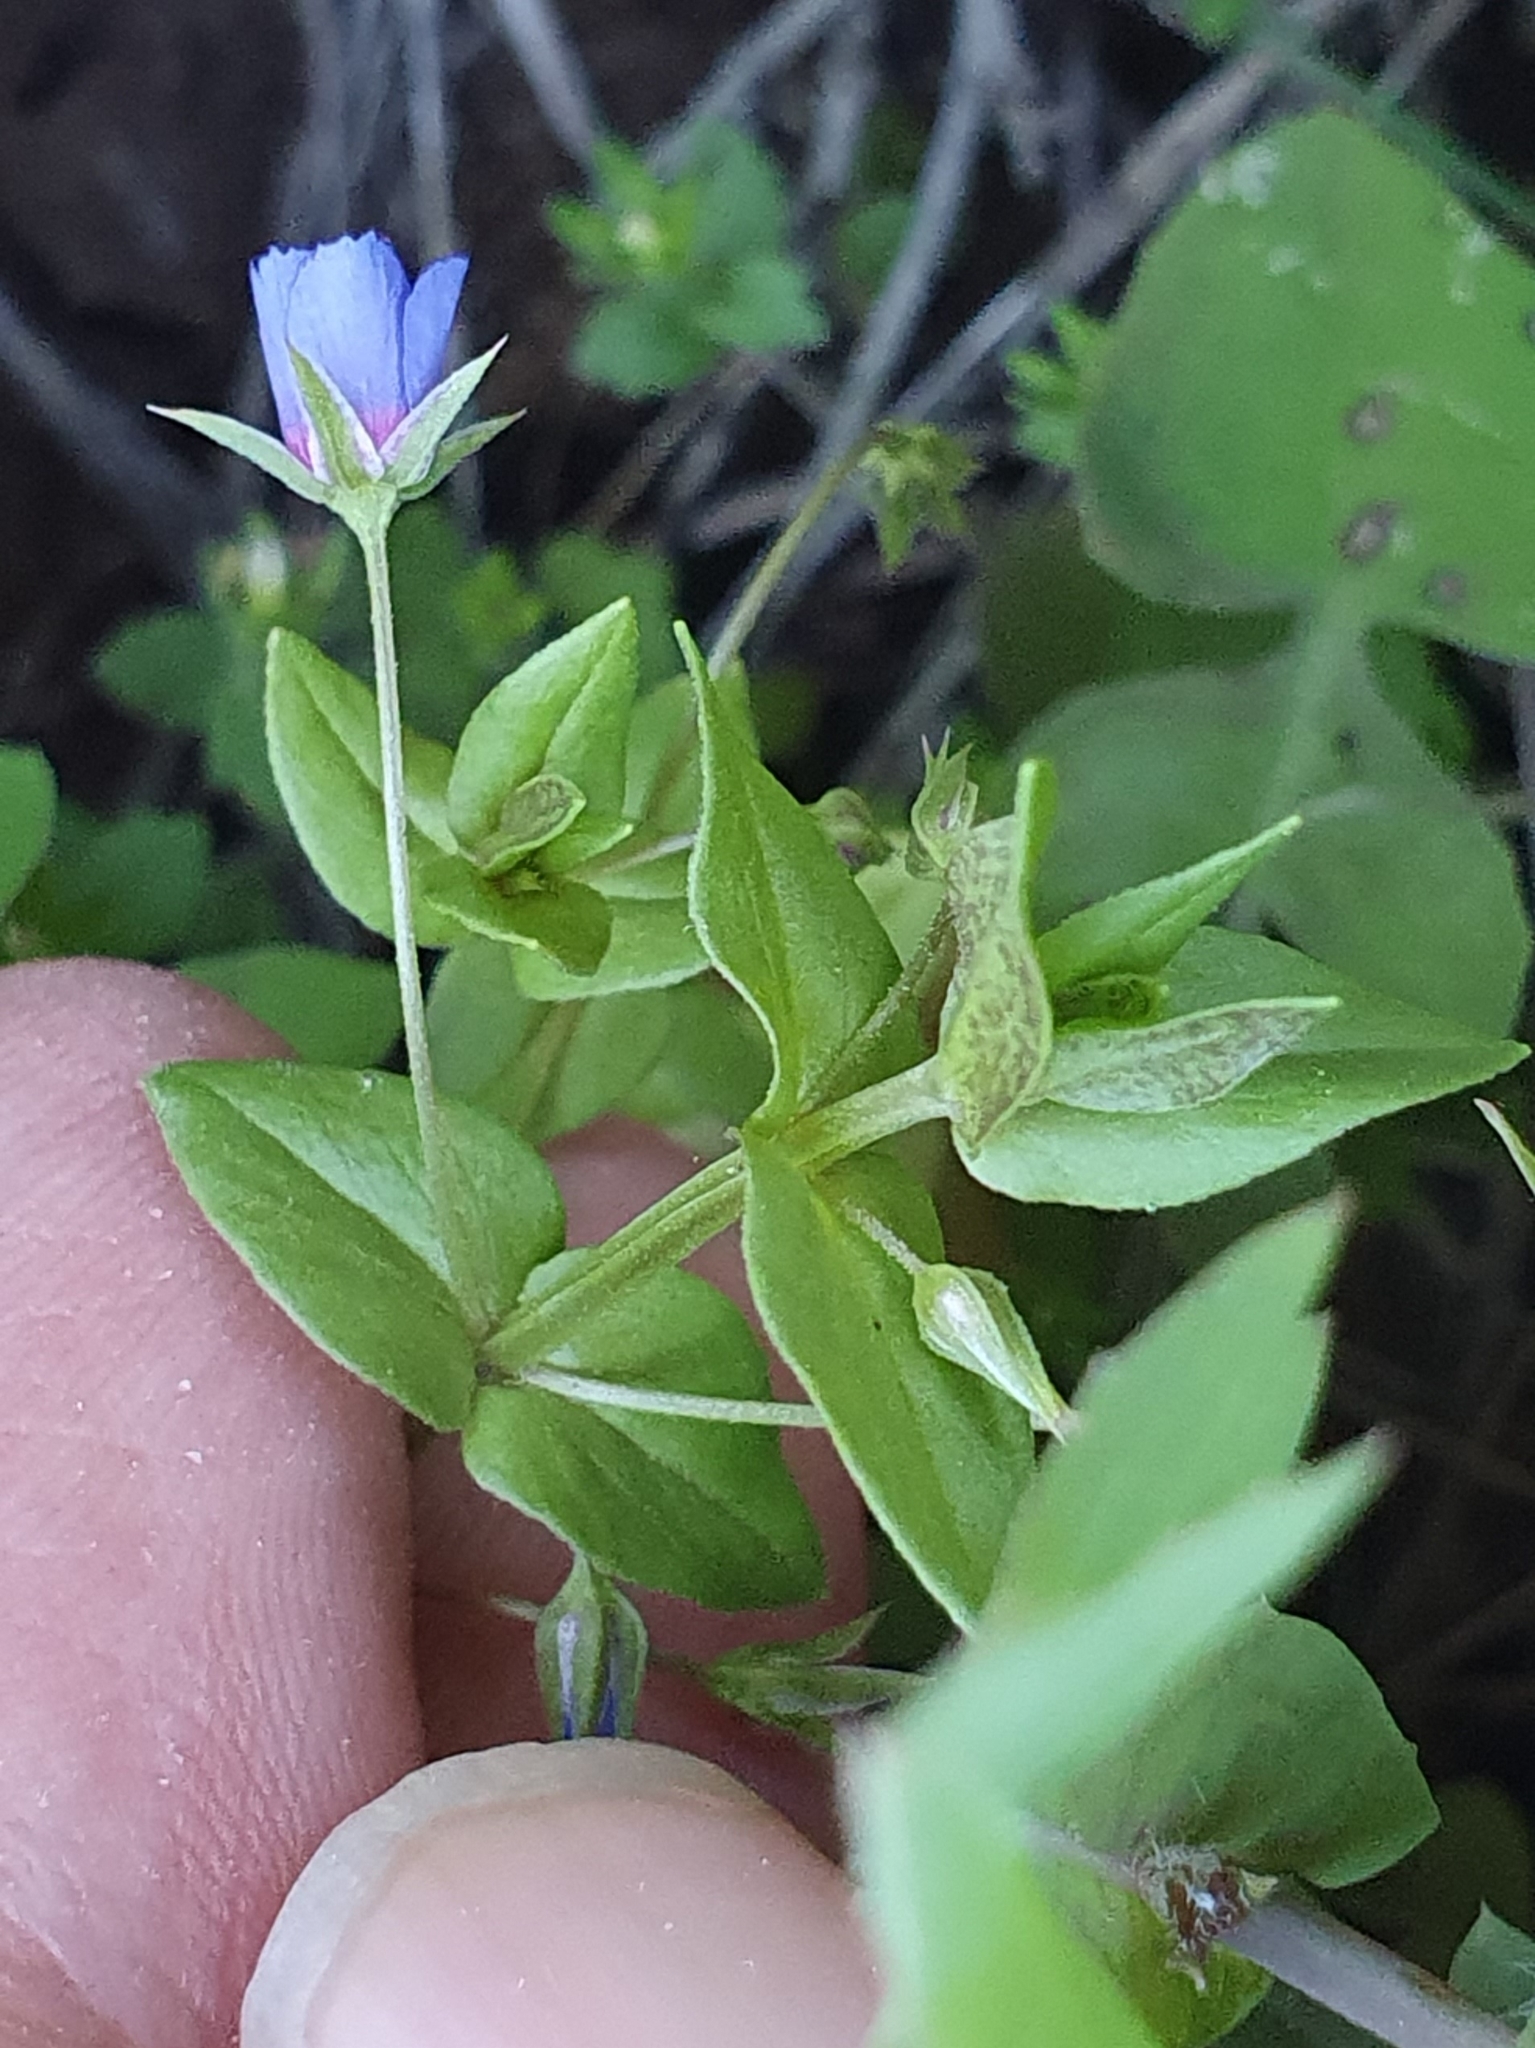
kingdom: Plantae
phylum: Tracheophyta
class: Magnoliopsida
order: Ericales
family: Primulaceae
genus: Lysimachia
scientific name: Lysimachia loeflingii
